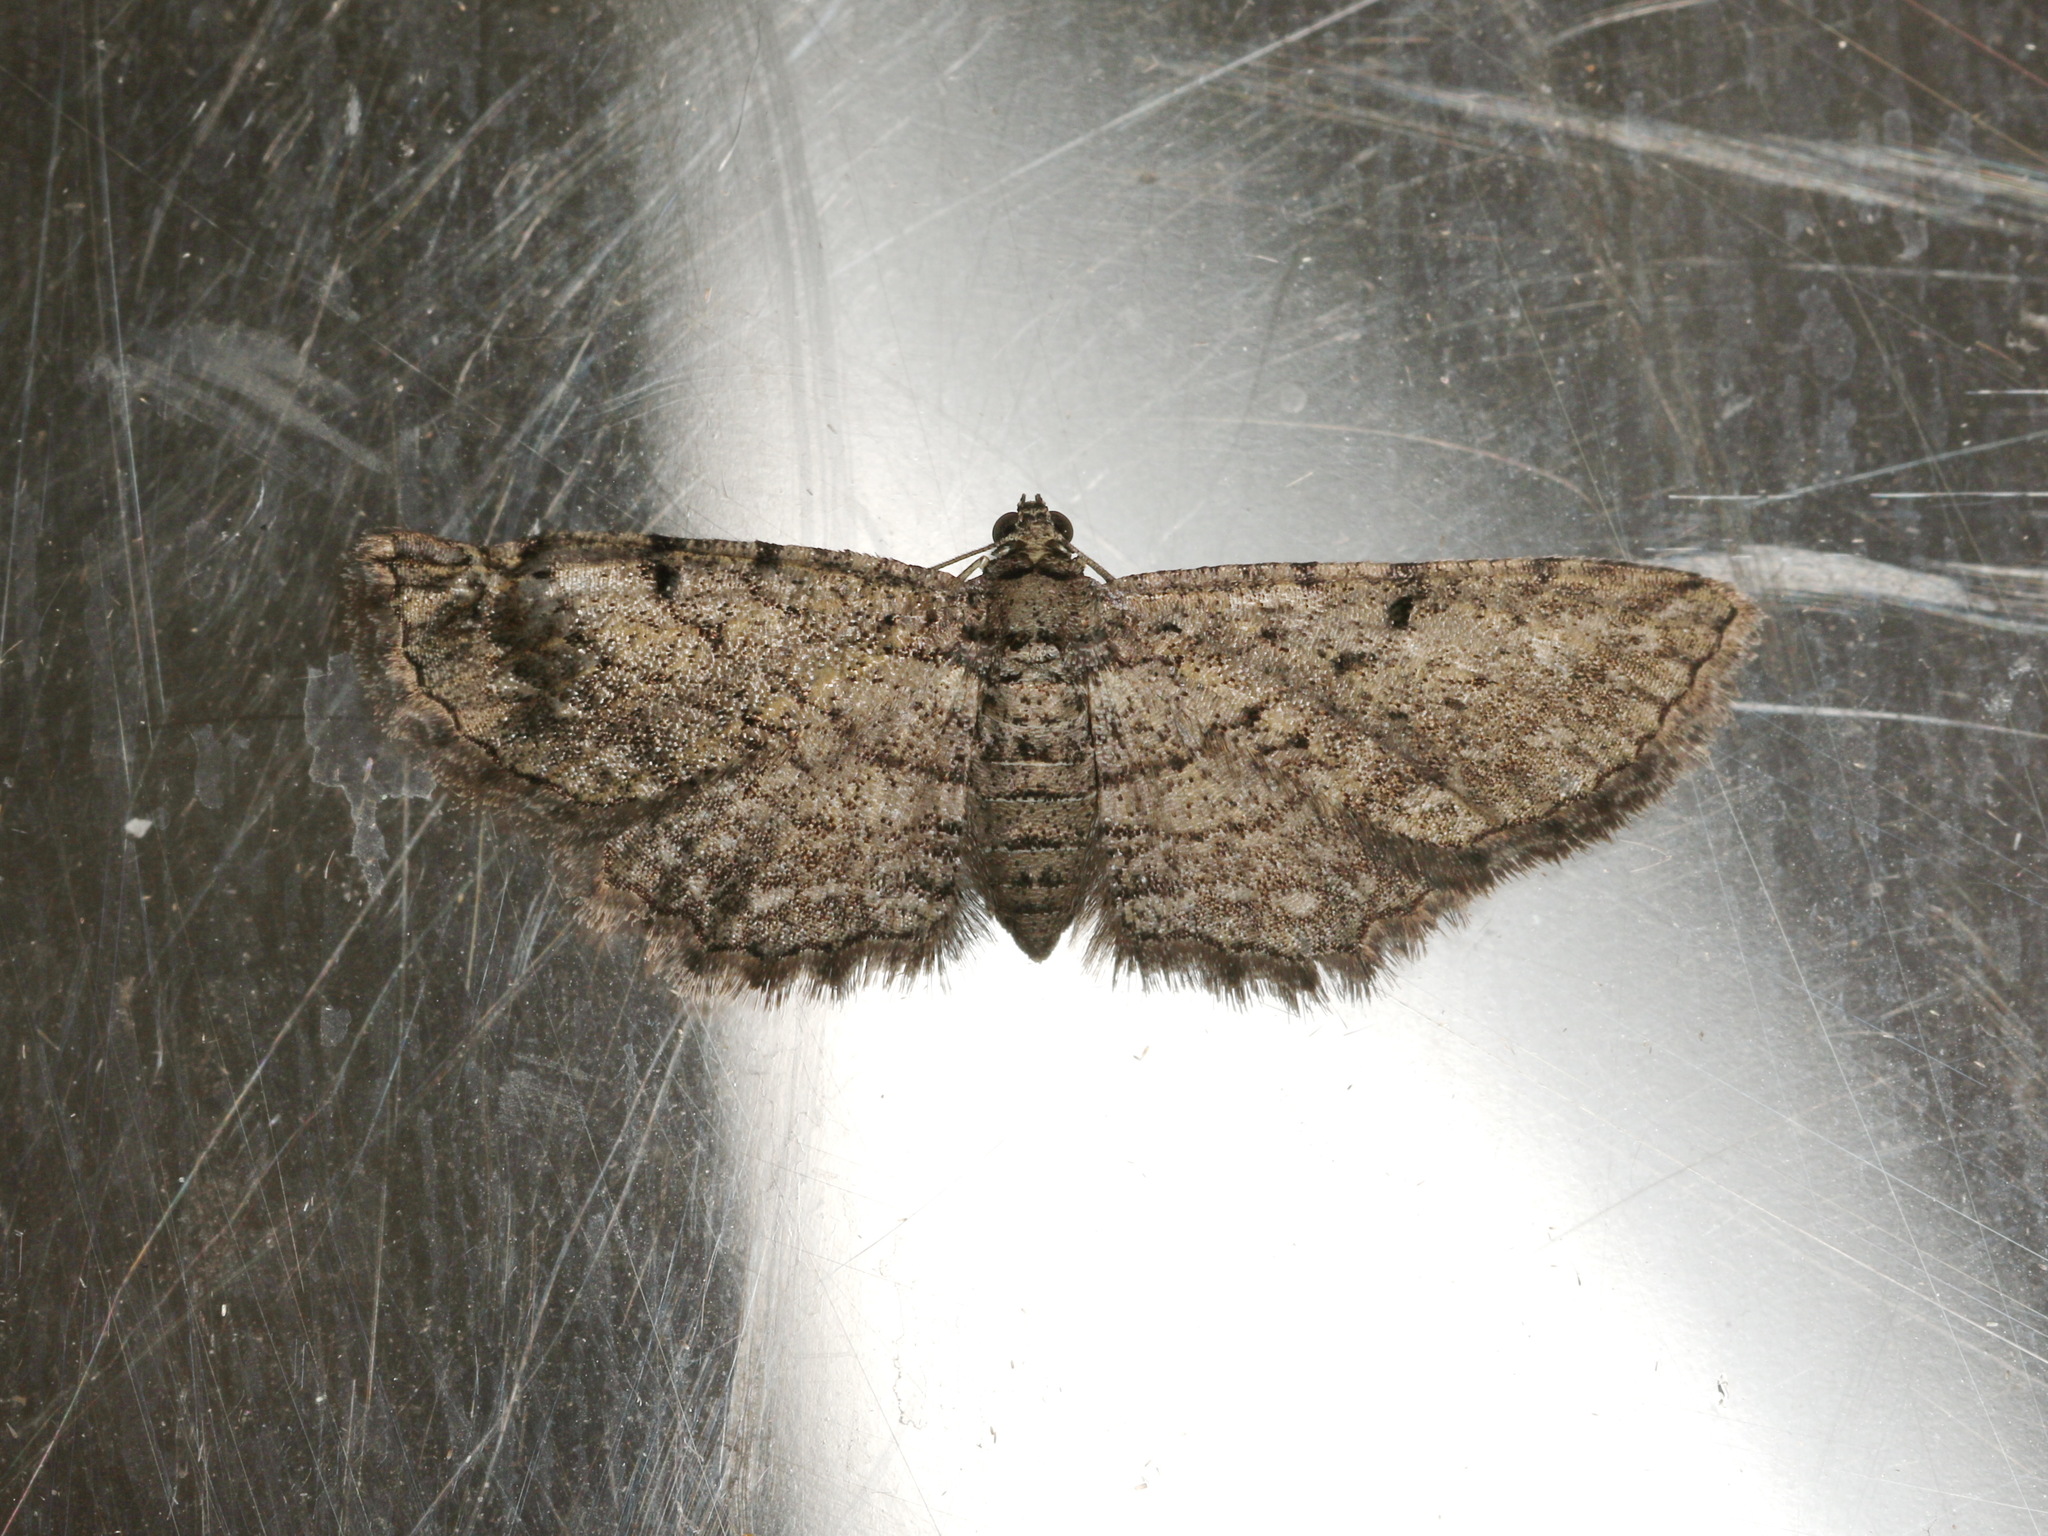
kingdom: Animalia
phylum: Arthropoda
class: Insecta
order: Lepidoptera
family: Geometridae
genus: Psilosticha
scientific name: Psilosticha pristis
